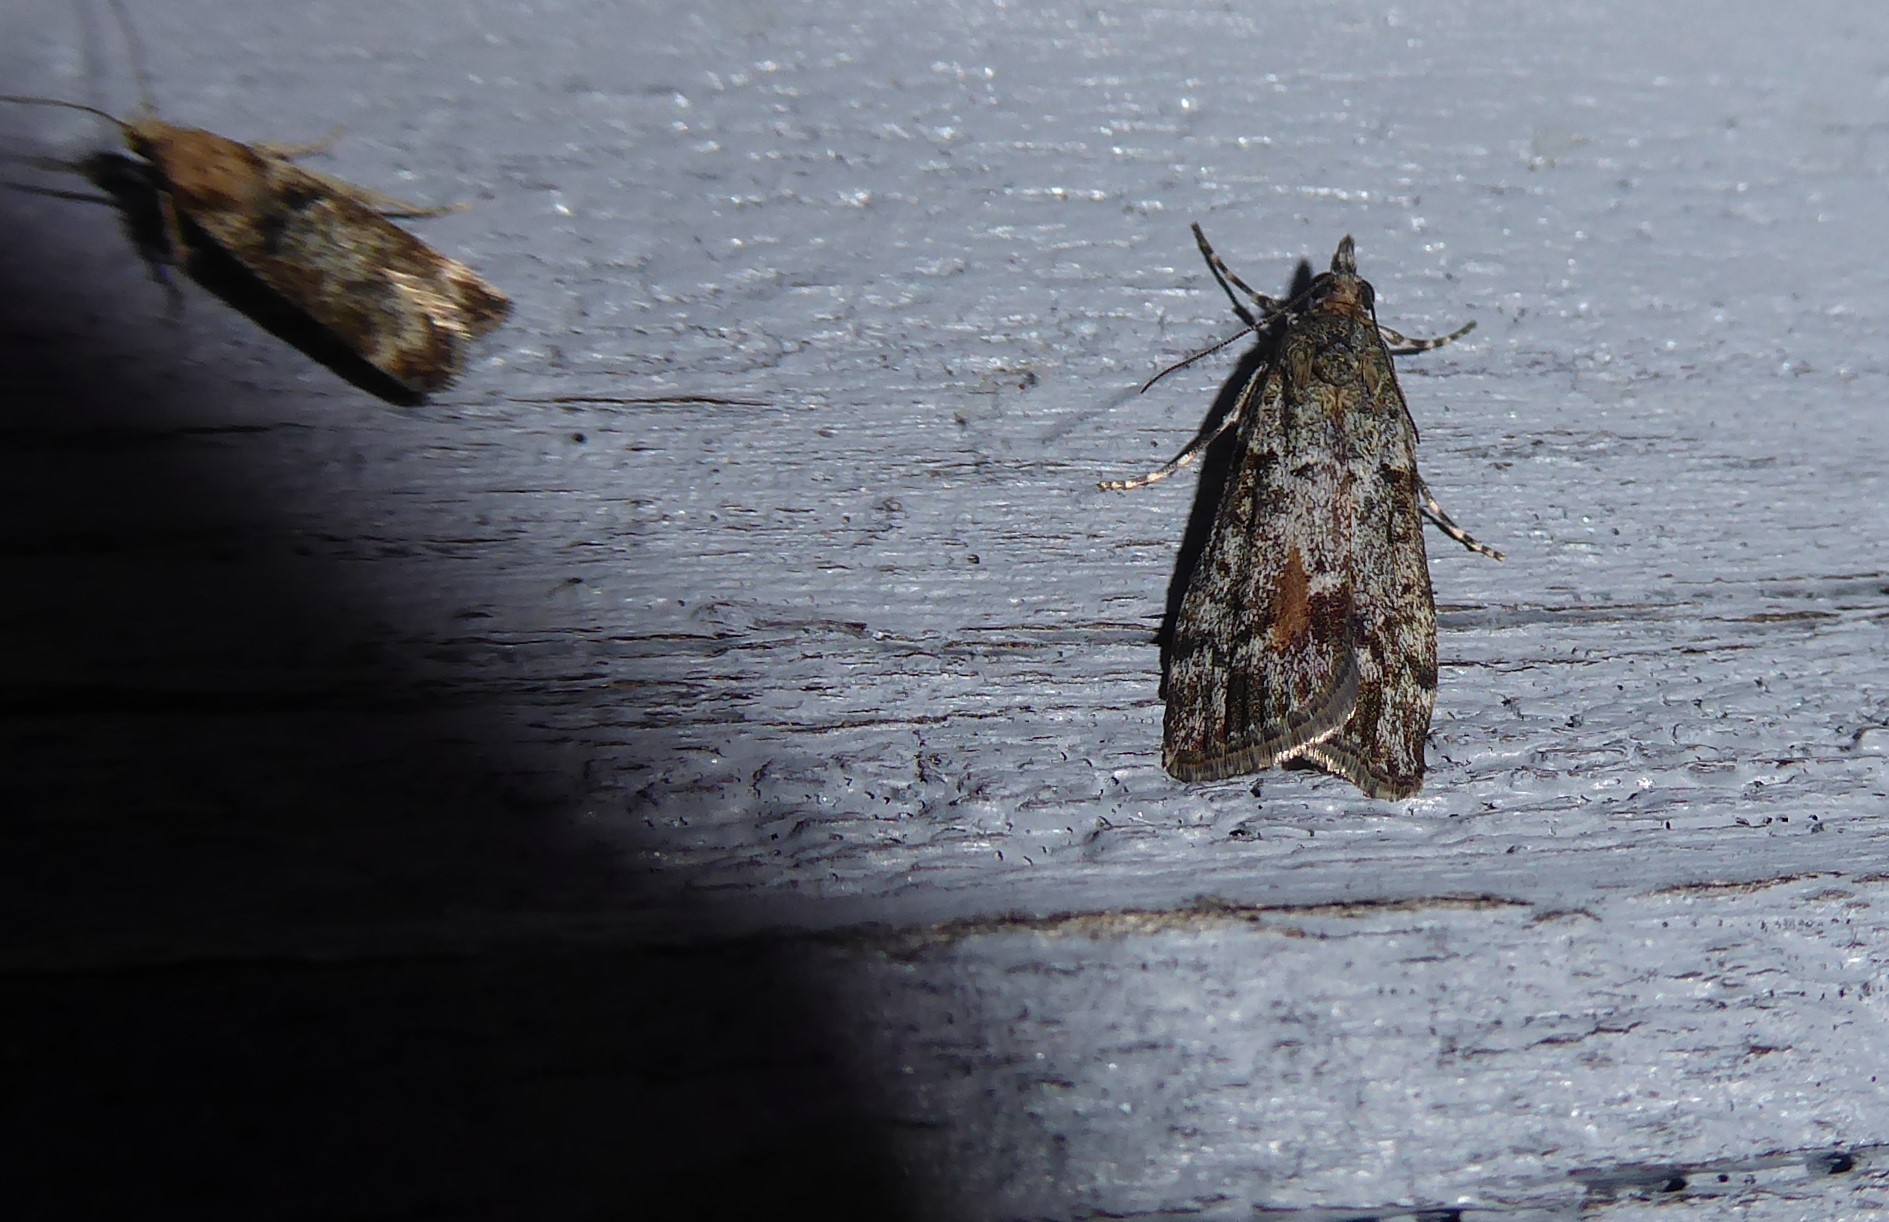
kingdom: Animalia
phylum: Arthropoda
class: Insecta
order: Lepidoptera
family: Crambidae
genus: Eudonia
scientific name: Eudonia submarginalis
